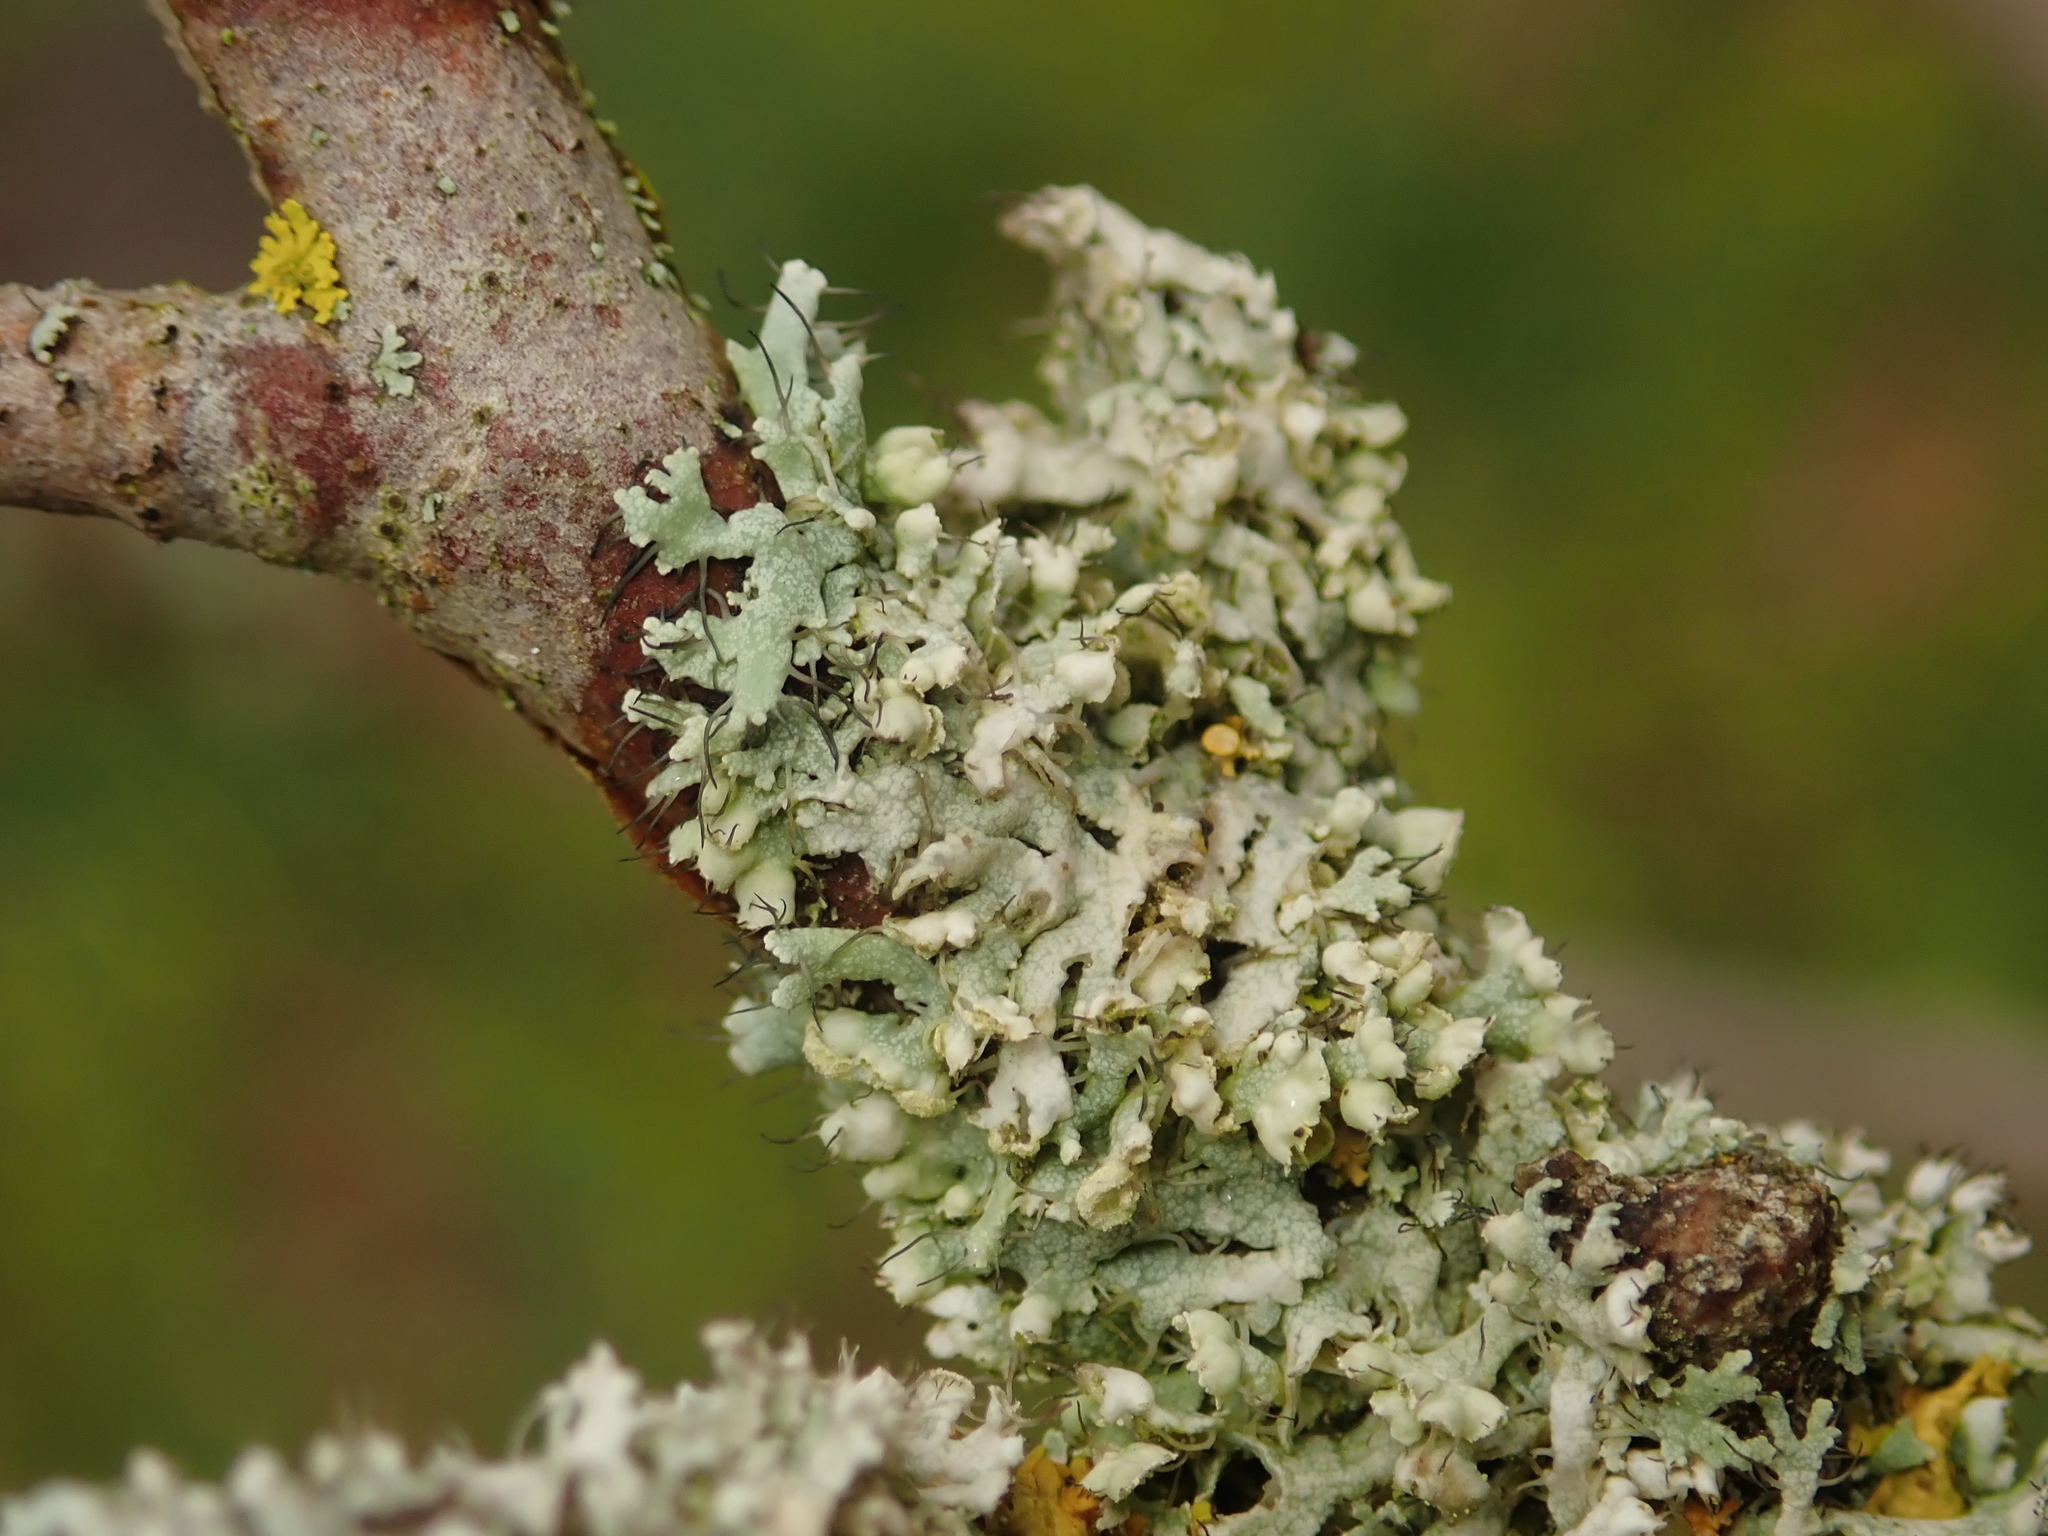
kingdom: Fungi
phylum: Ascomycota
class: Lecanoromycetes
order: Caliciales
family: Physciaceae
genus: Physcia
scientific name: Physcia adscendens
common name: Hooded rosette lichen
